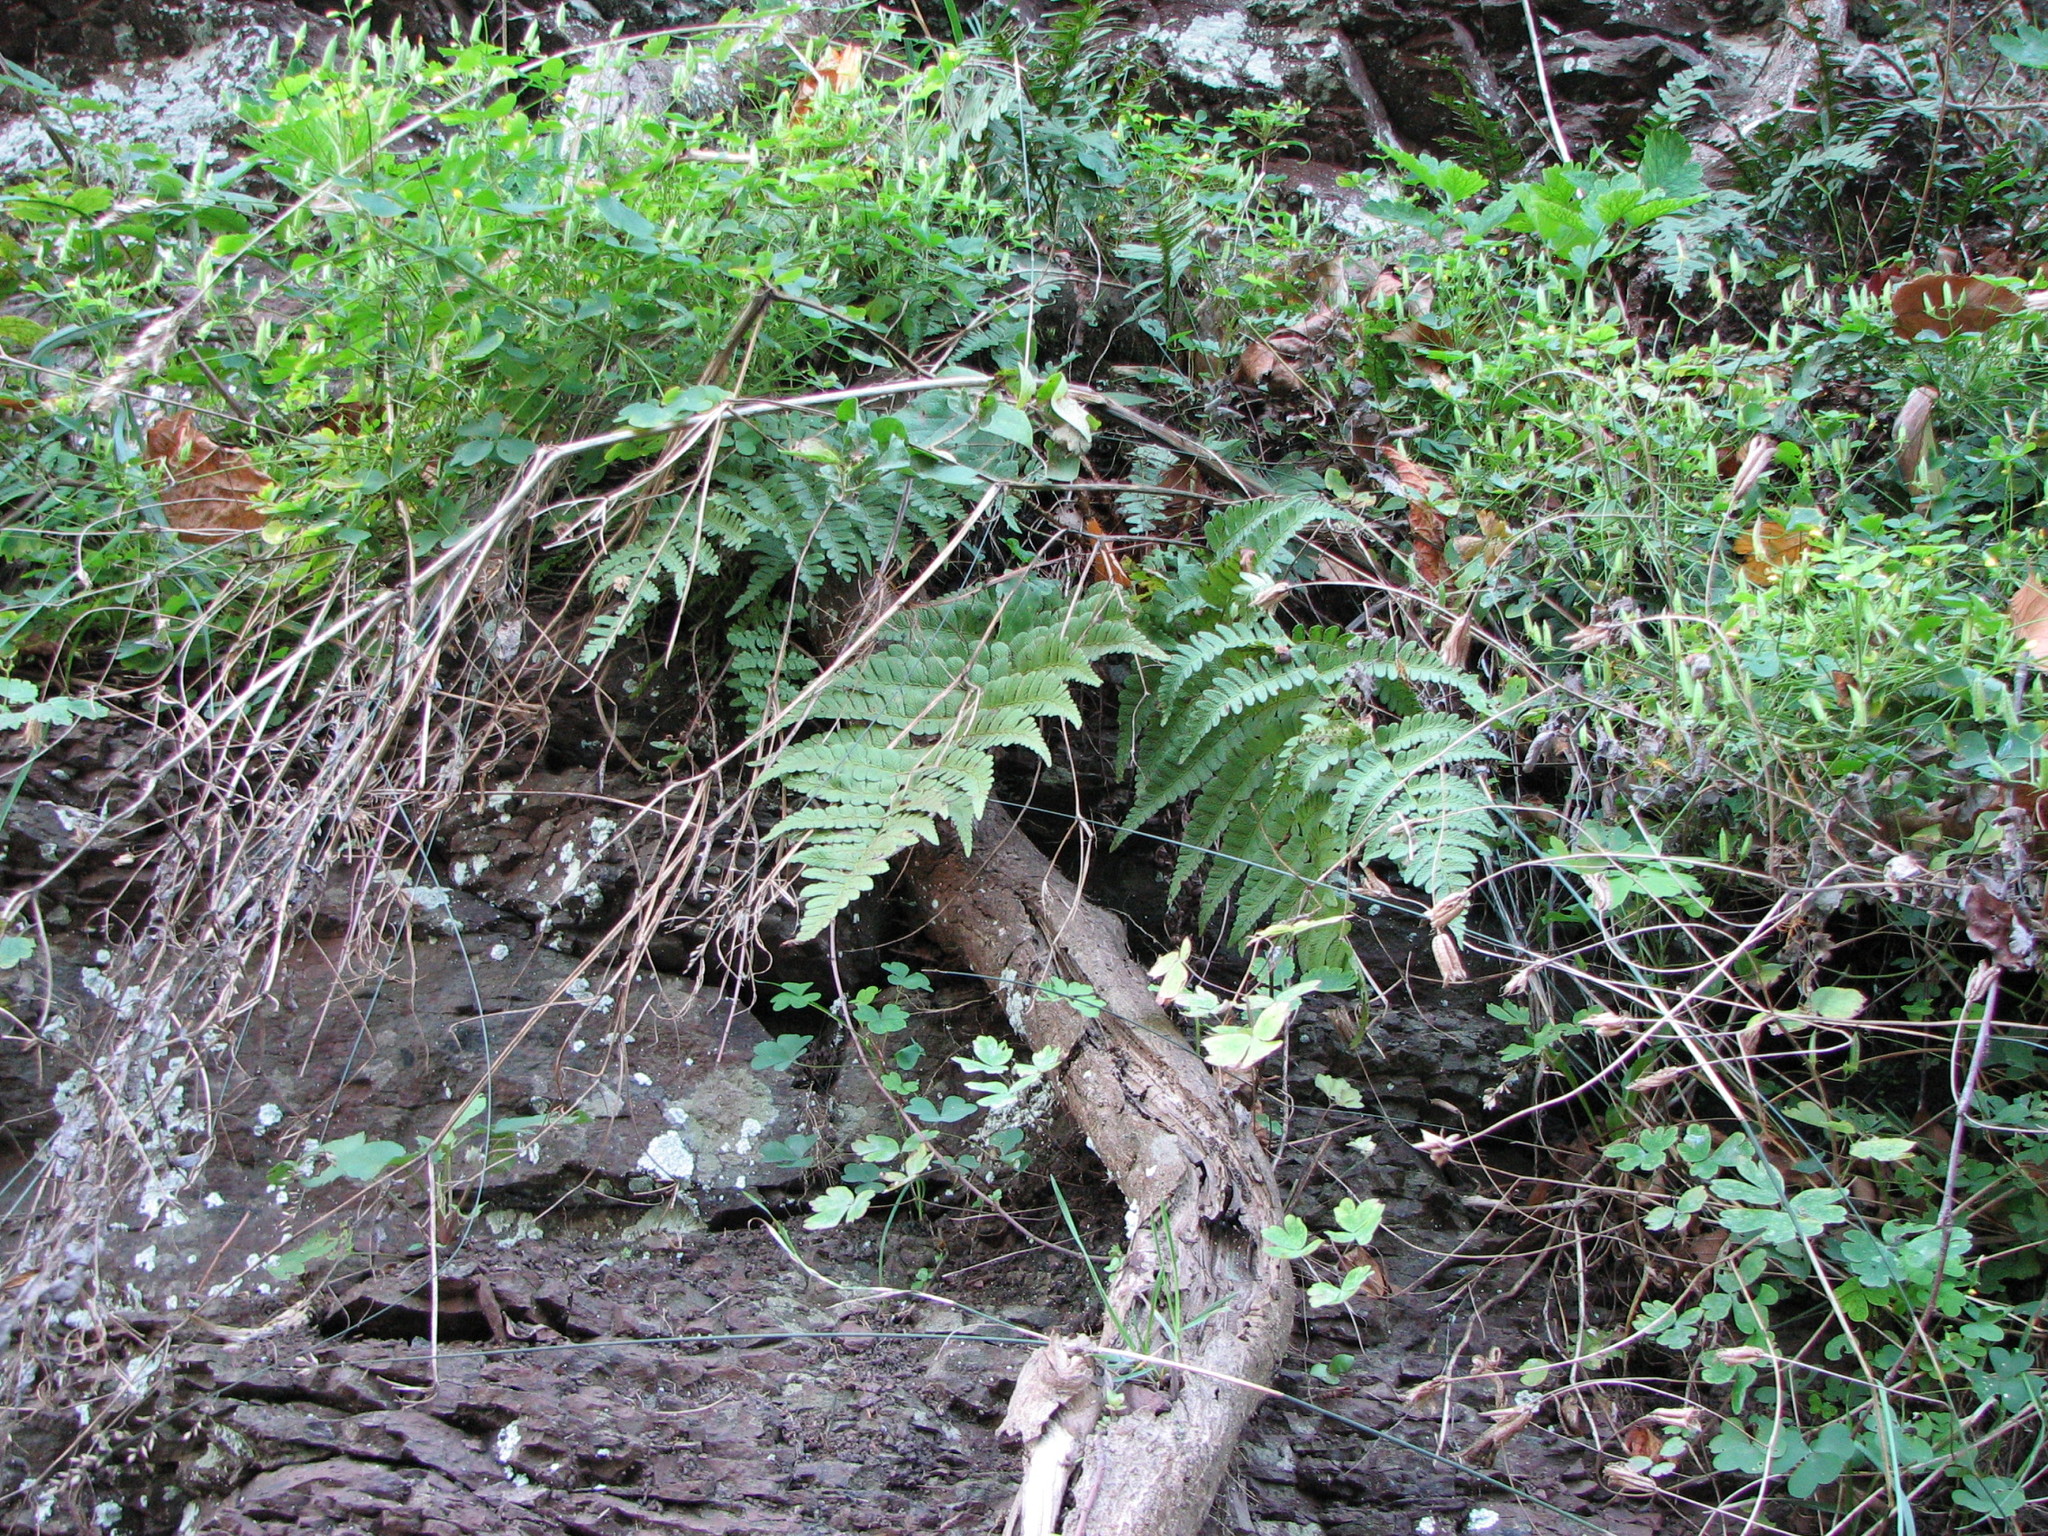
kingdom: Plantae
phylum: Tracheophyta
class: Polypodiopsida
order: Polypodiales
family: Dryopteridaceae
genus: Dryopteris
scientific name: Dryopteris marginalis
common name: Marginal wood fern
